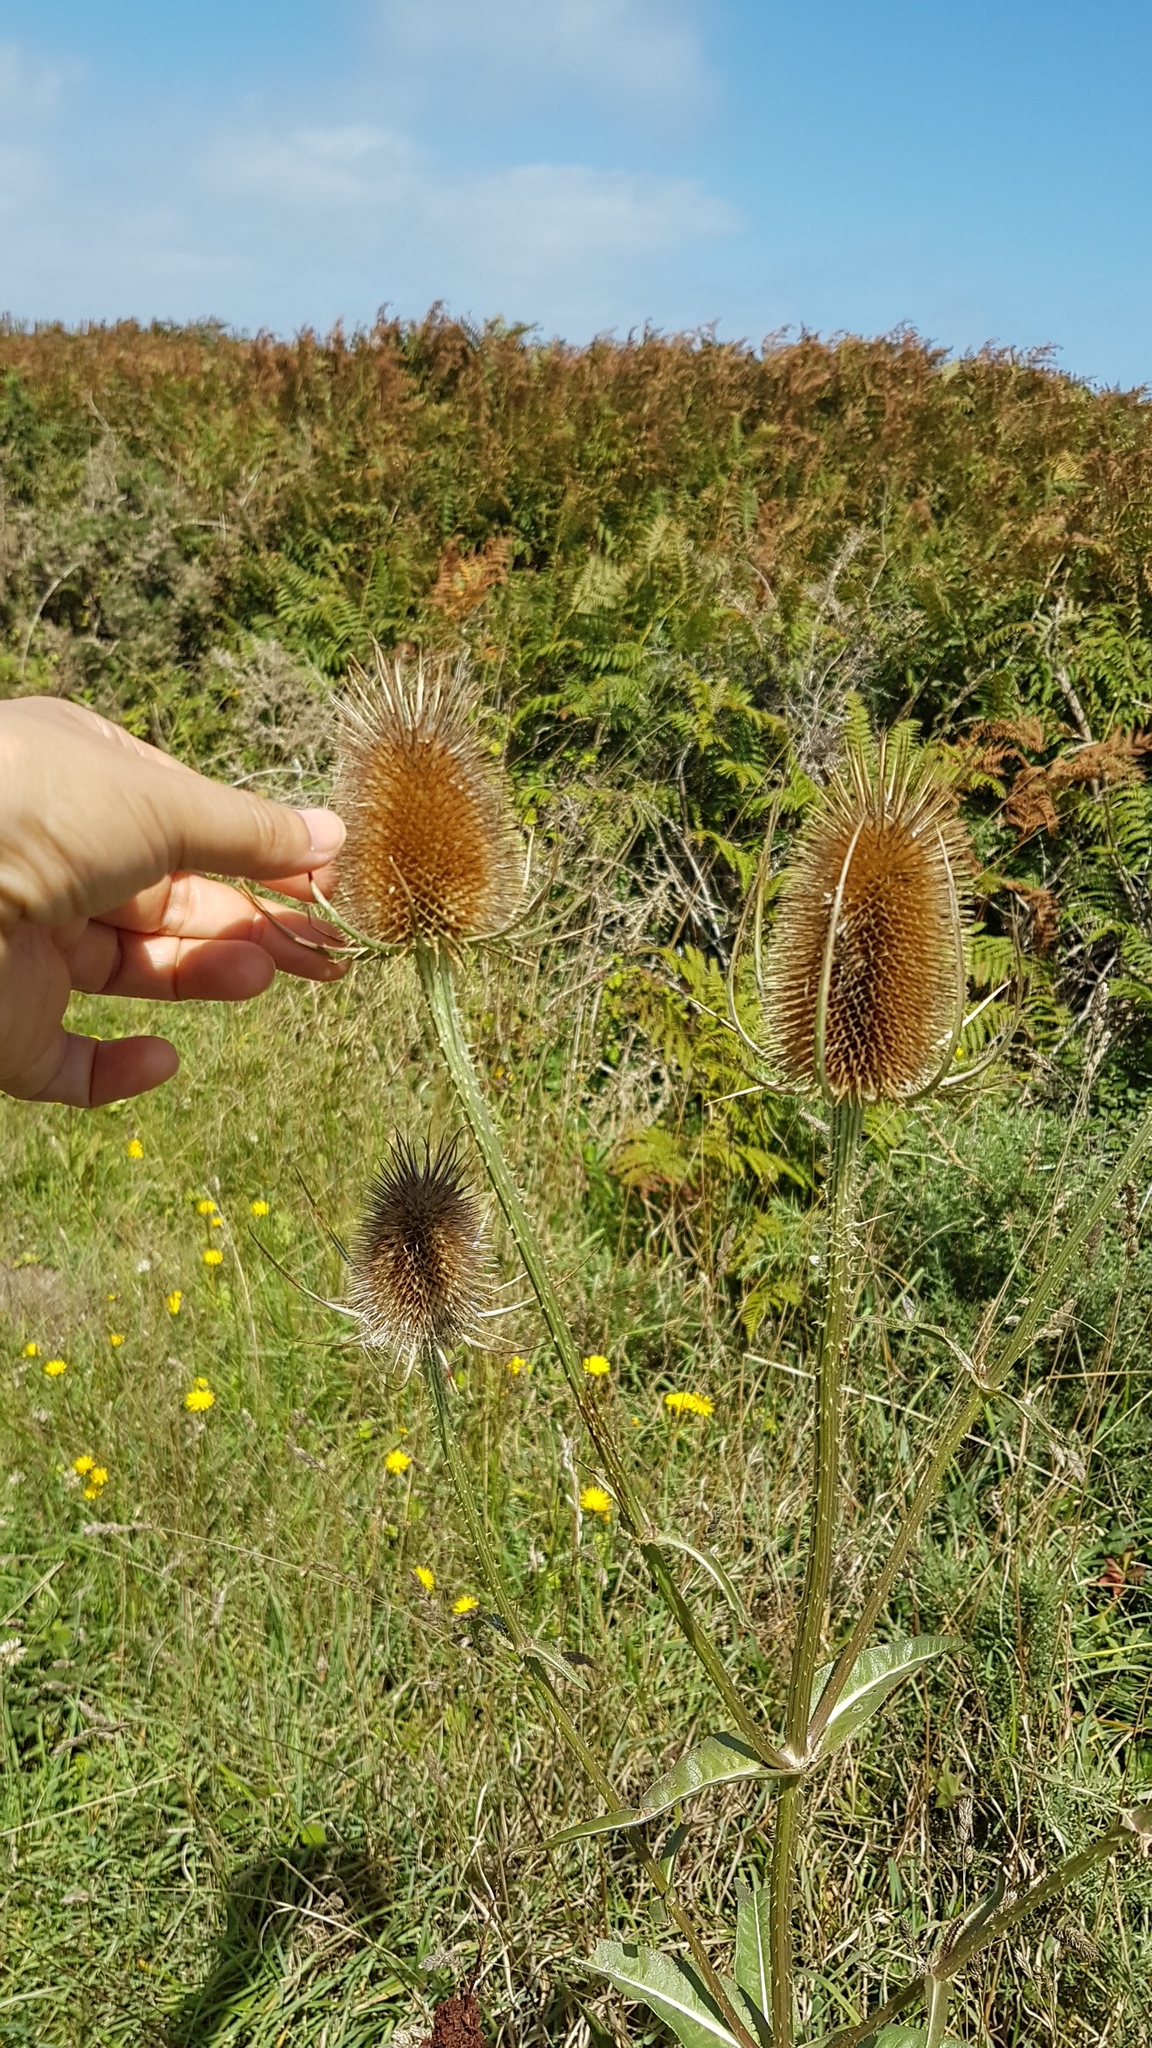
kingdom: Plantae
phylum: Tracheophyta
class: Magnoliopsida
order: Dipsacales
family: Caprifoliaceae
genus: Dipsacus
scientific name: Dipsacus fullonum
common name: Teasel
